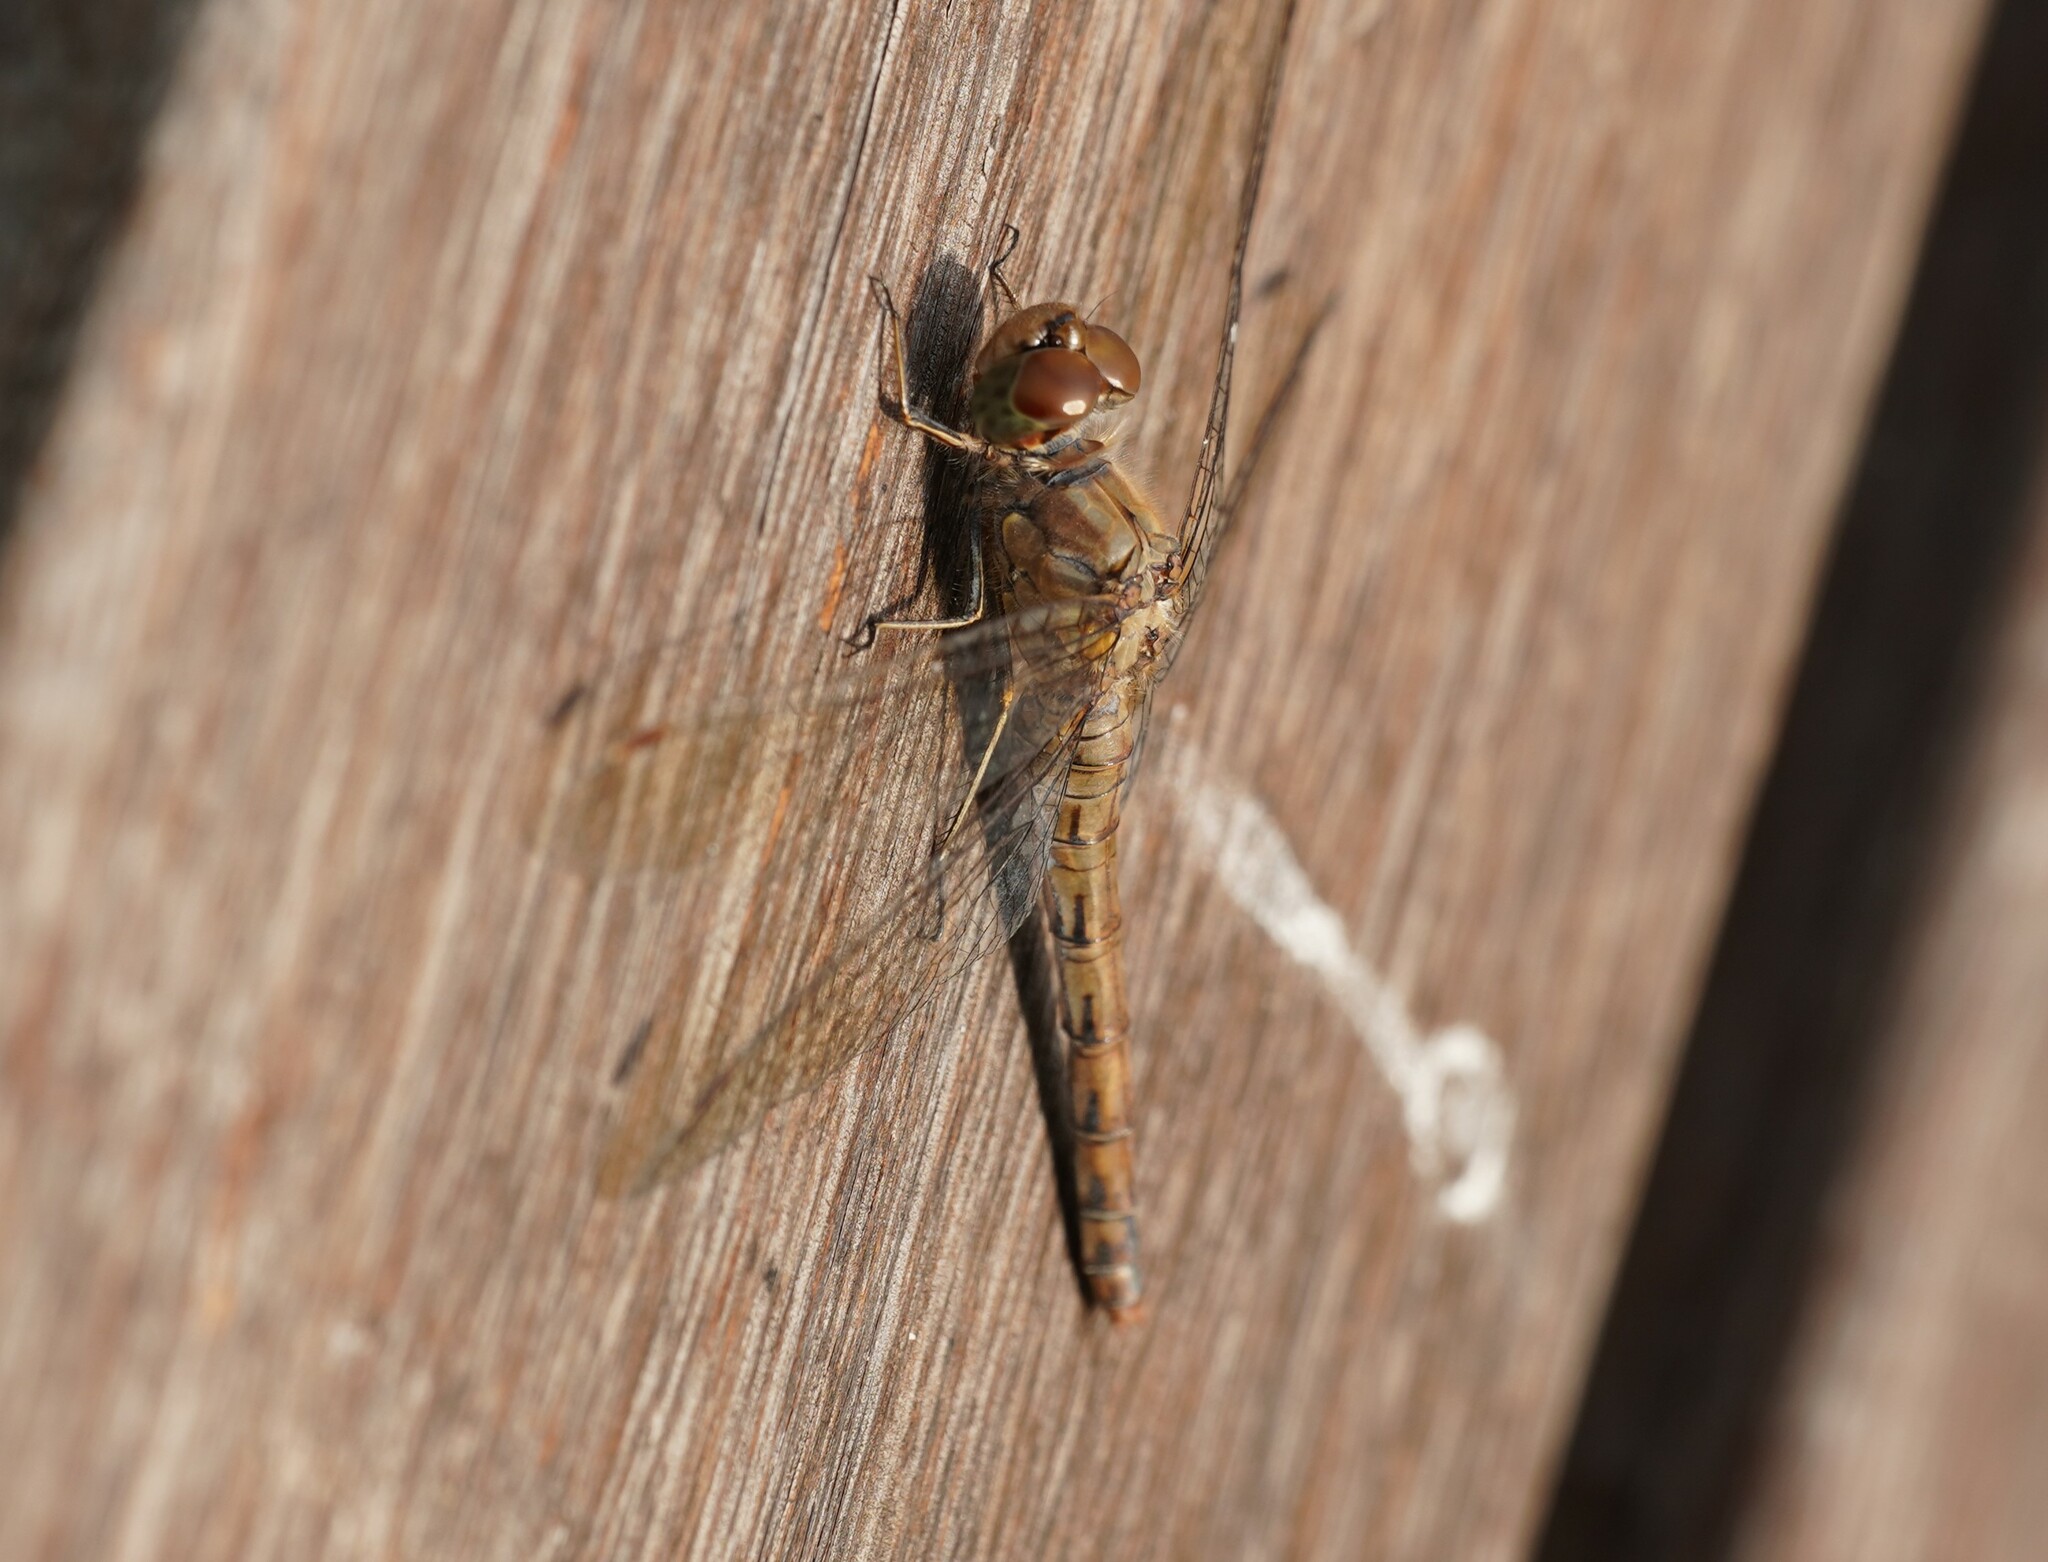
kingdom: Animalia
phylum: Arthropoda
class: Insecta
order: Odonata
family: Libellulidae
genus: Sympetrum
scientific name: Sympetrum striolatum
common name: Common darter
